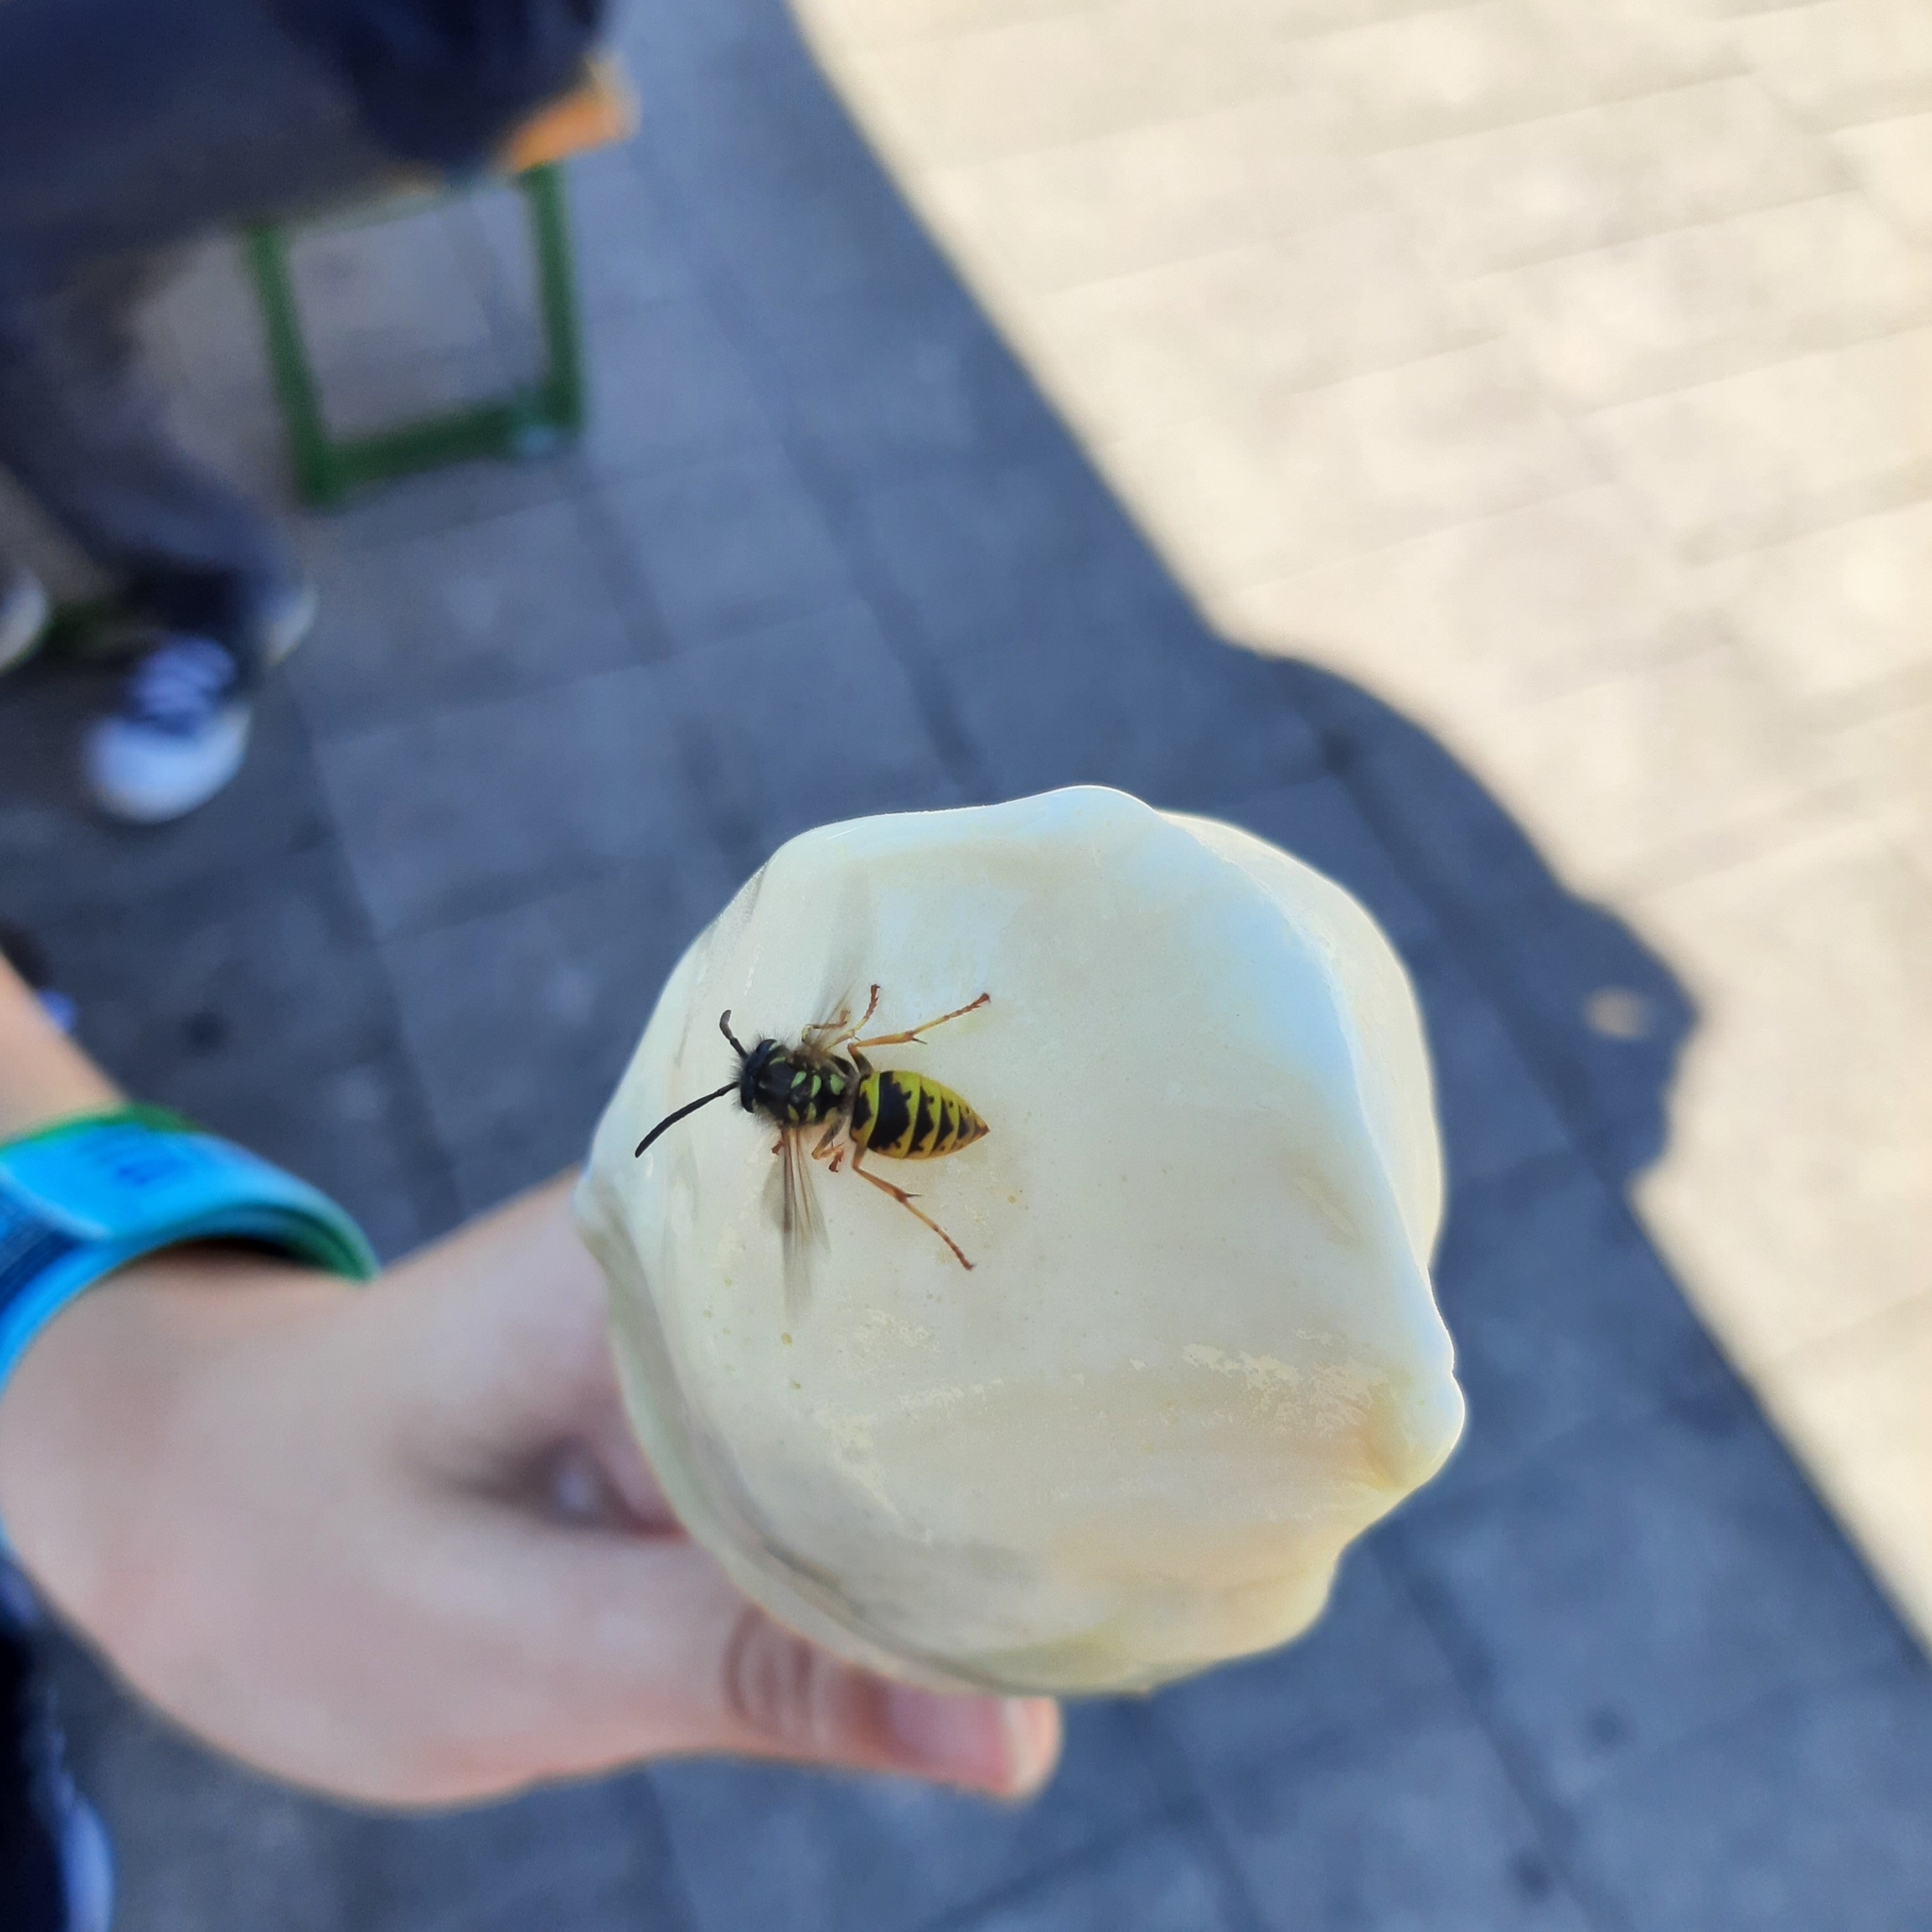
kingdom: Animalia
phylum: Arthropoda
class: Insecta
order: Hymenoptera
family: Vespidae
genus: Vespula
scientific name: Vespula vulgaris
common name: Common wasp
